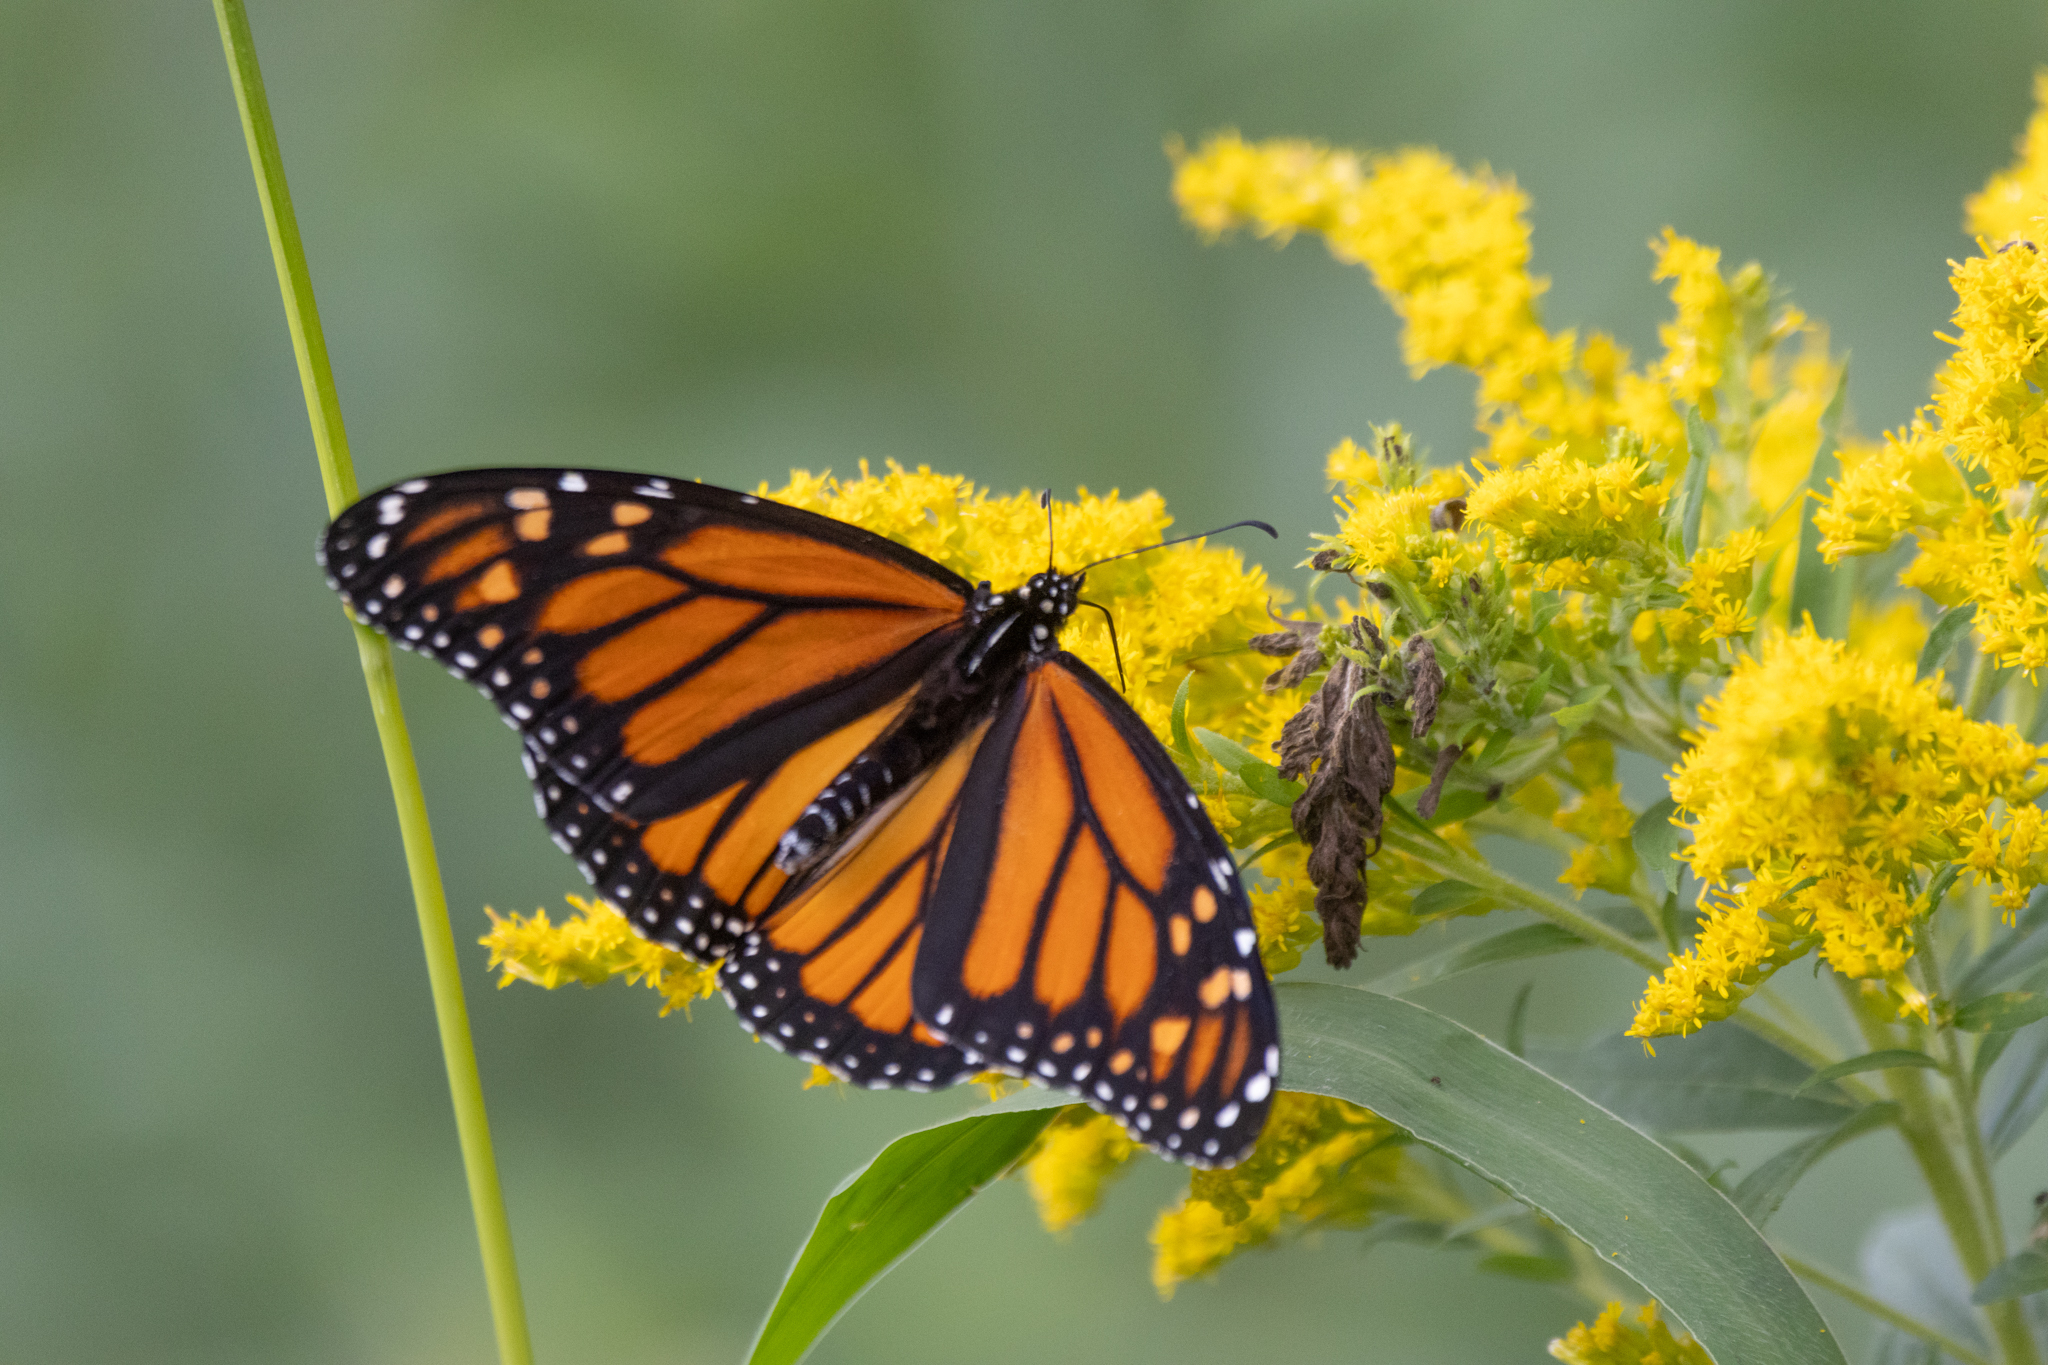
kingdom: Animalia
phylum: Arthropoda
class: Insecta
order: Lepidoptera
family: Nymphalidae
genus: Danaus
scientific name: Danaus plexippus
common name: Monarch
